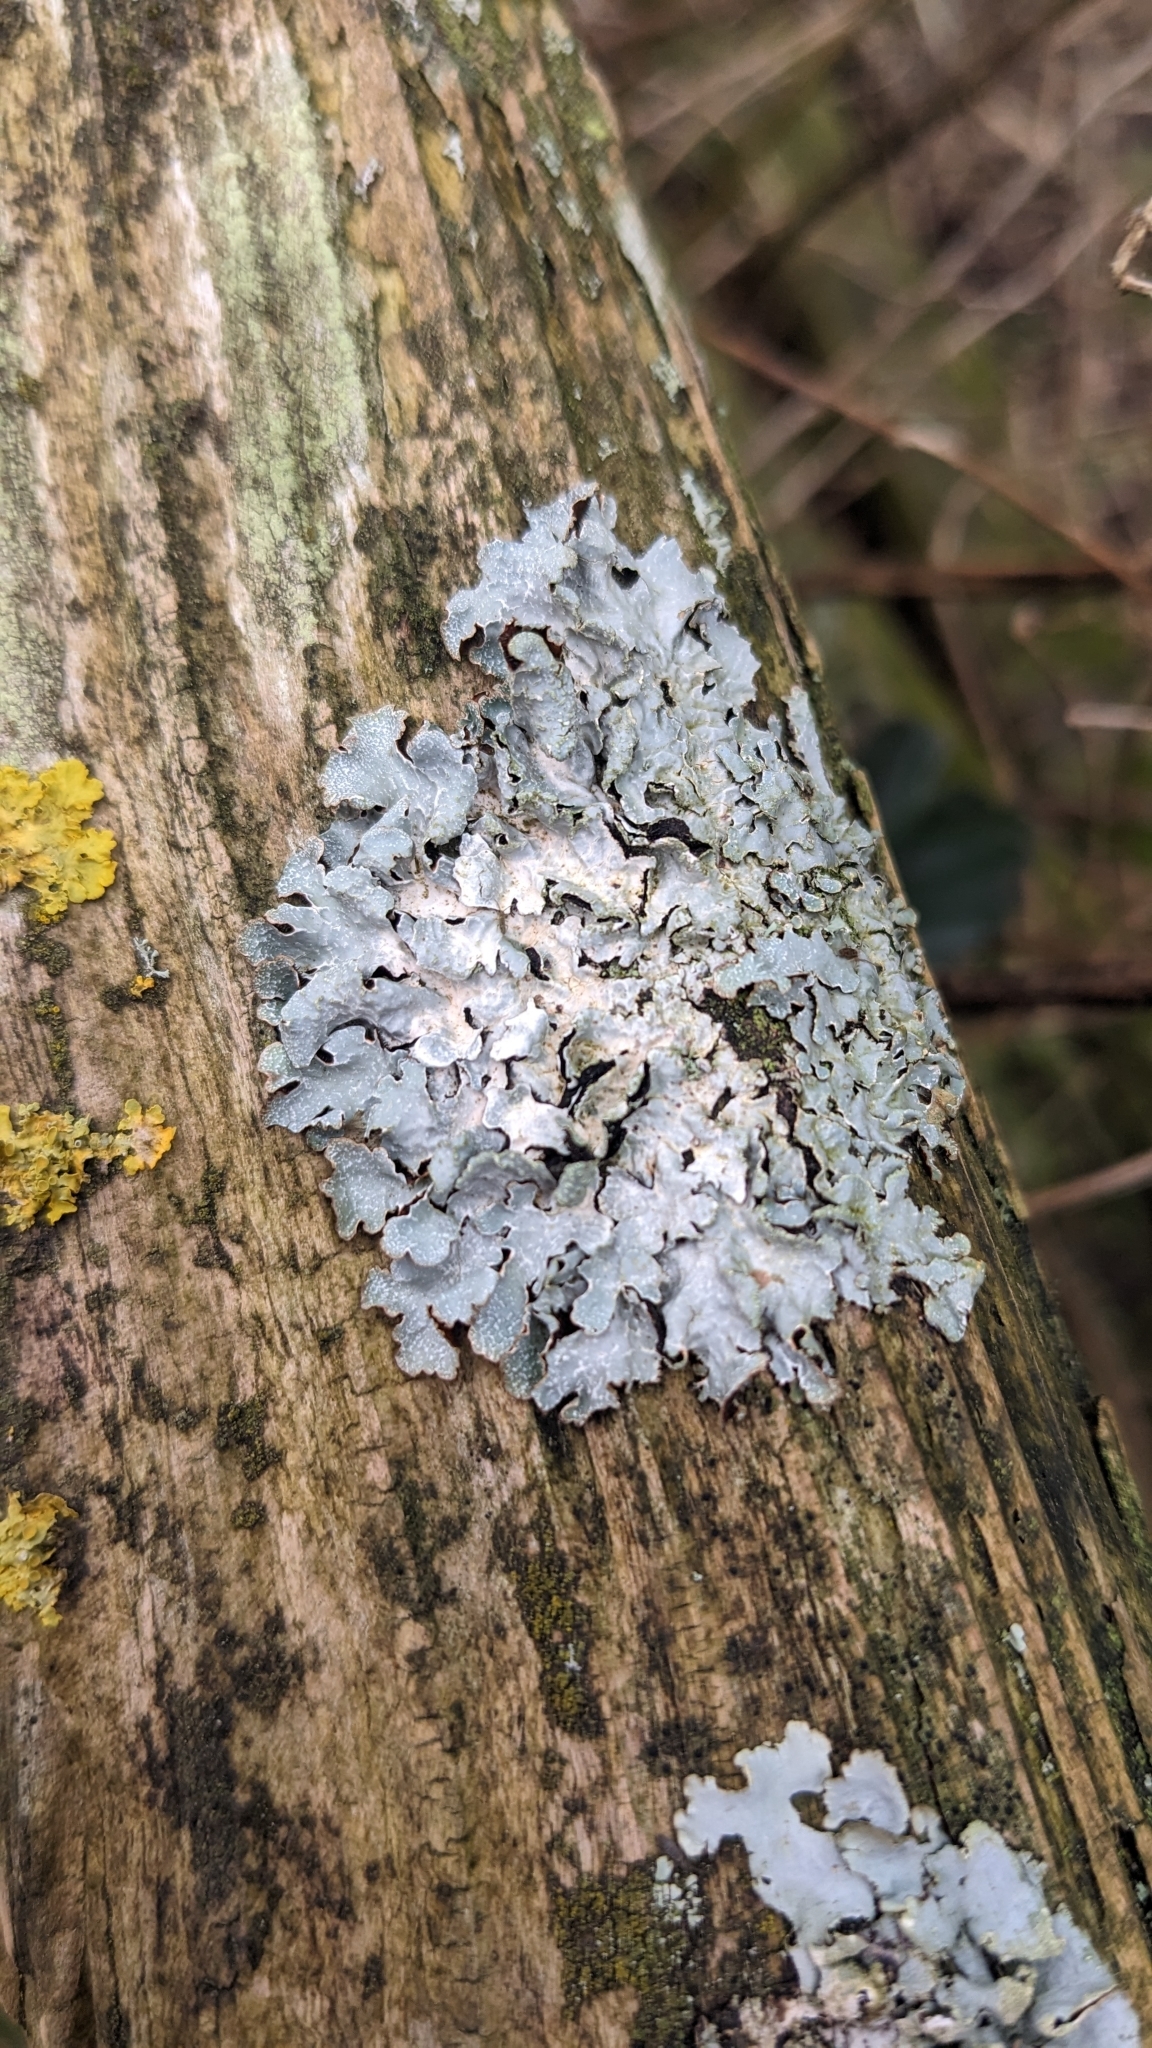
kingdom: Fungi
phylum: Ascomycota
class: Lecanoromycetes
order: Lecanorales
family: Parmeliaceae
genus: Parmelia
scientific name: Parmelia sulcata
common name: Netted shield lichen
